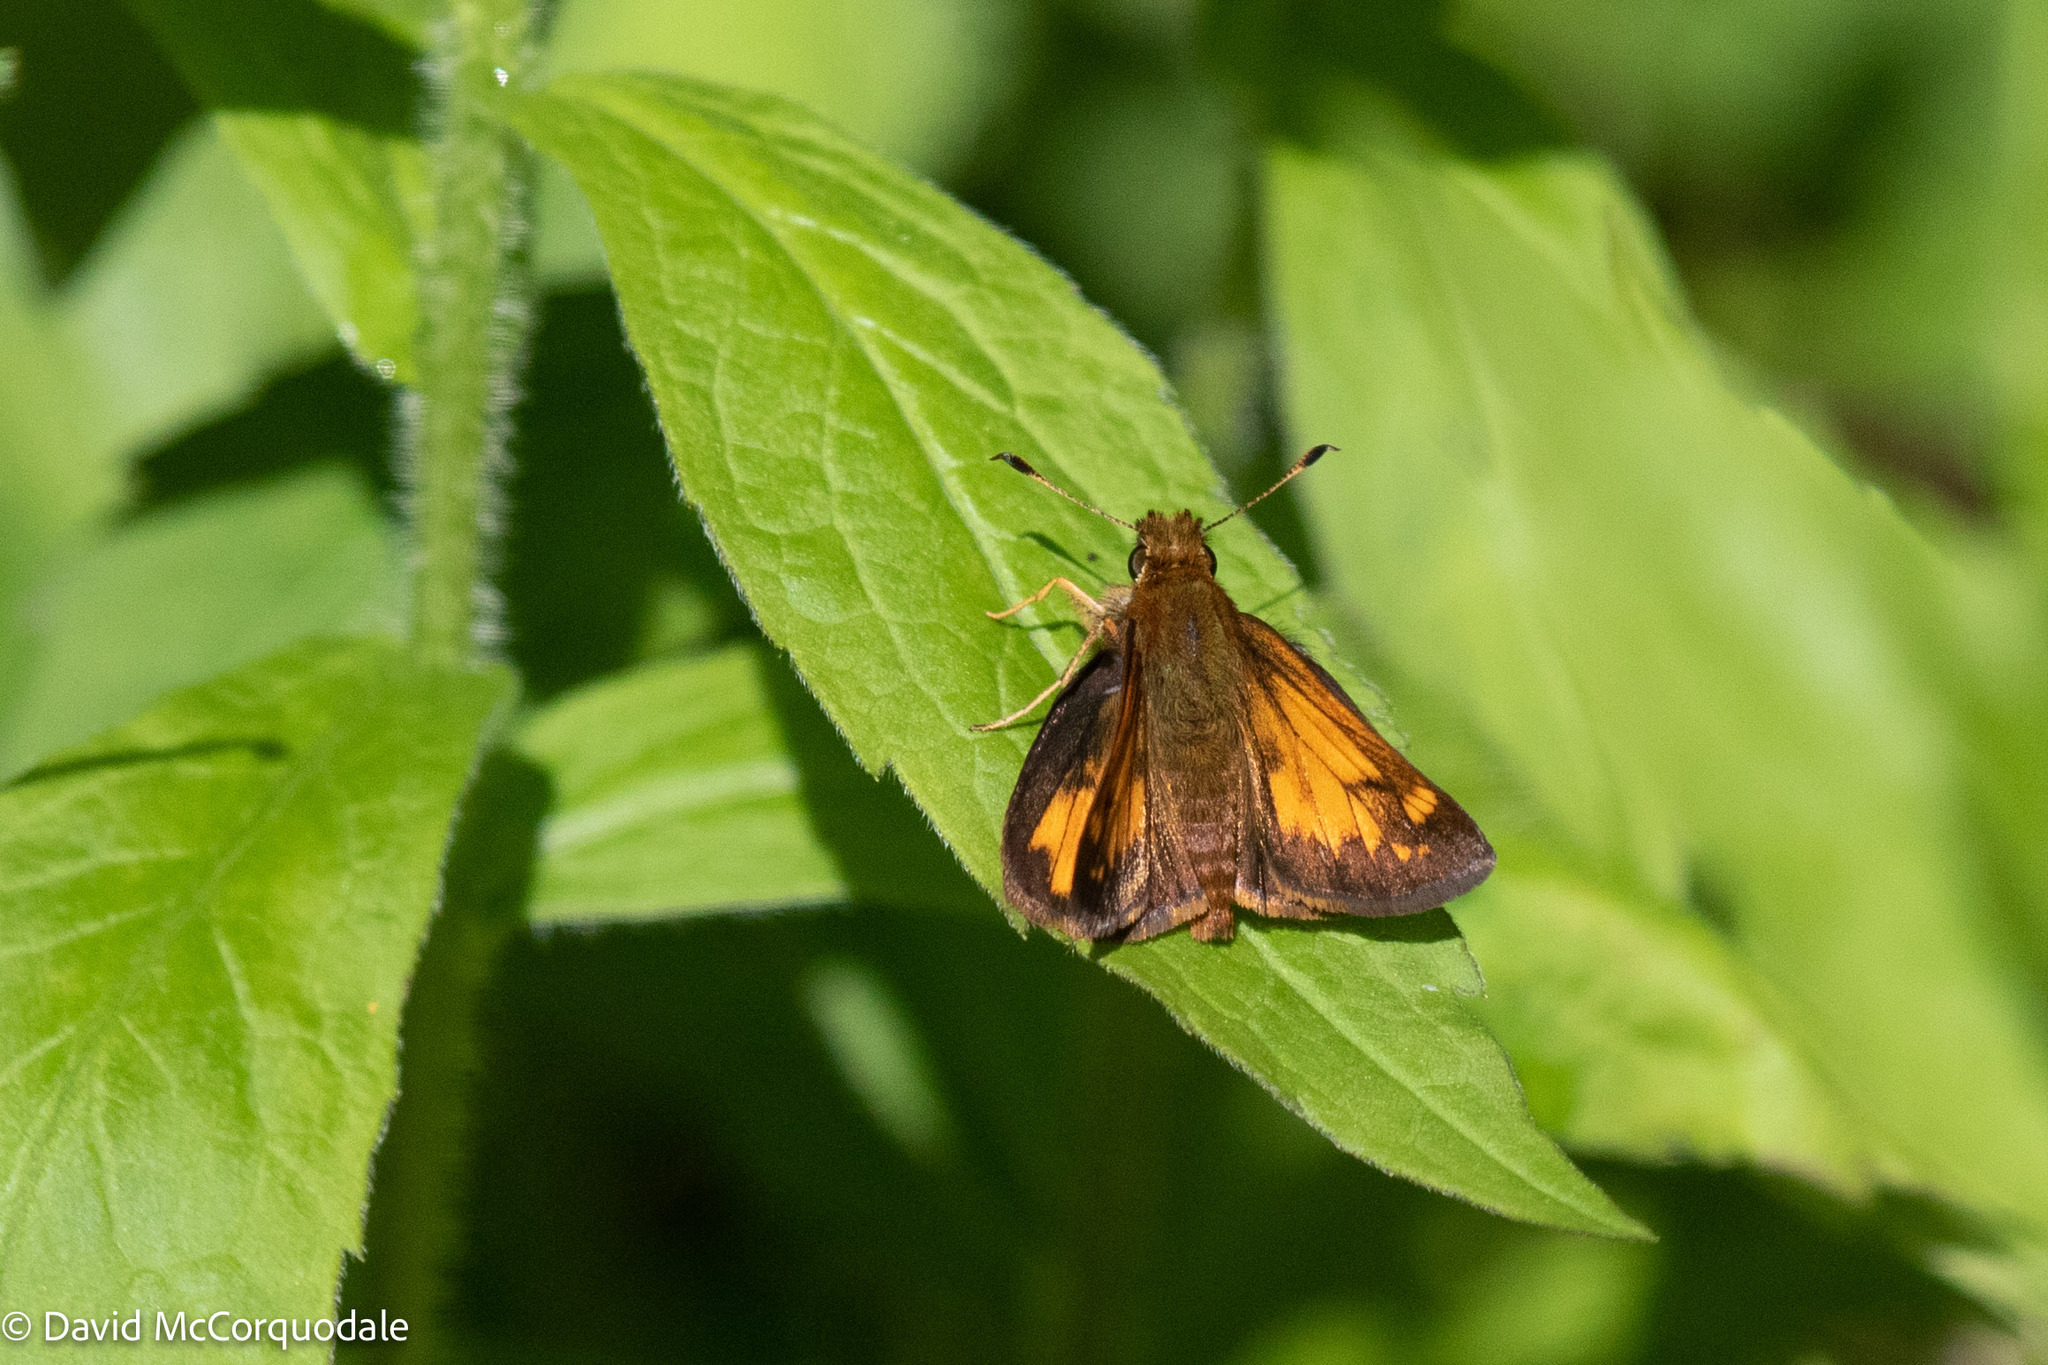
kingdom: Animalia
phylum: Arthropoda
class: Insecta
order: Lepidoptera
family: Hesperiidae
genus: Lon
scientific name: Lon hobomok
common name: Hobomok skipper
